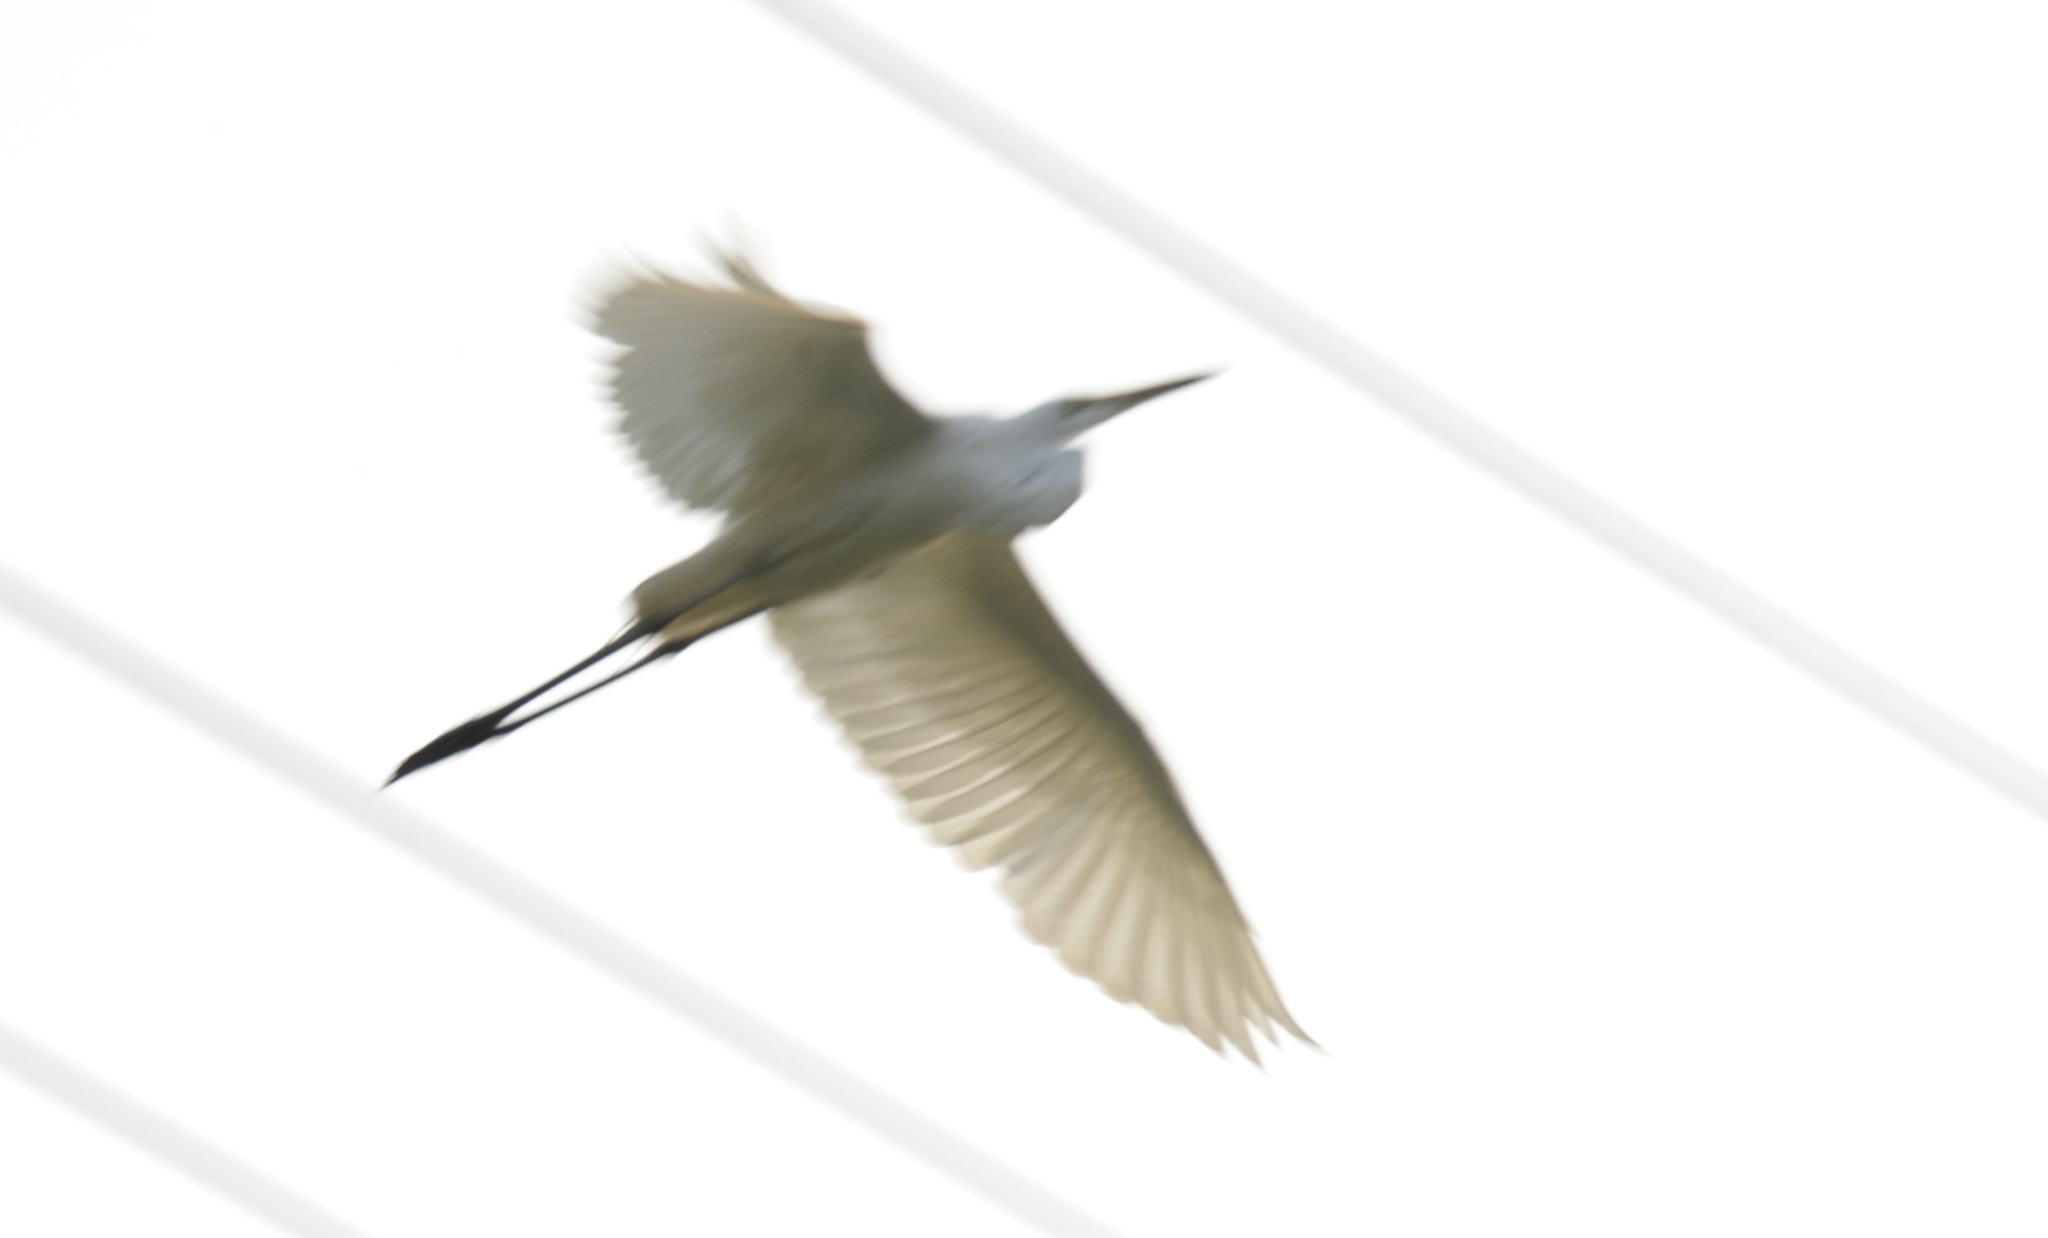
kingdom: Animalia
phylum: Chordata
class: Aves
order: Pelecaniformes
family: Ardeidae
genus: Egretta
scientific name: Egretta garzetta
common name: Little egret
